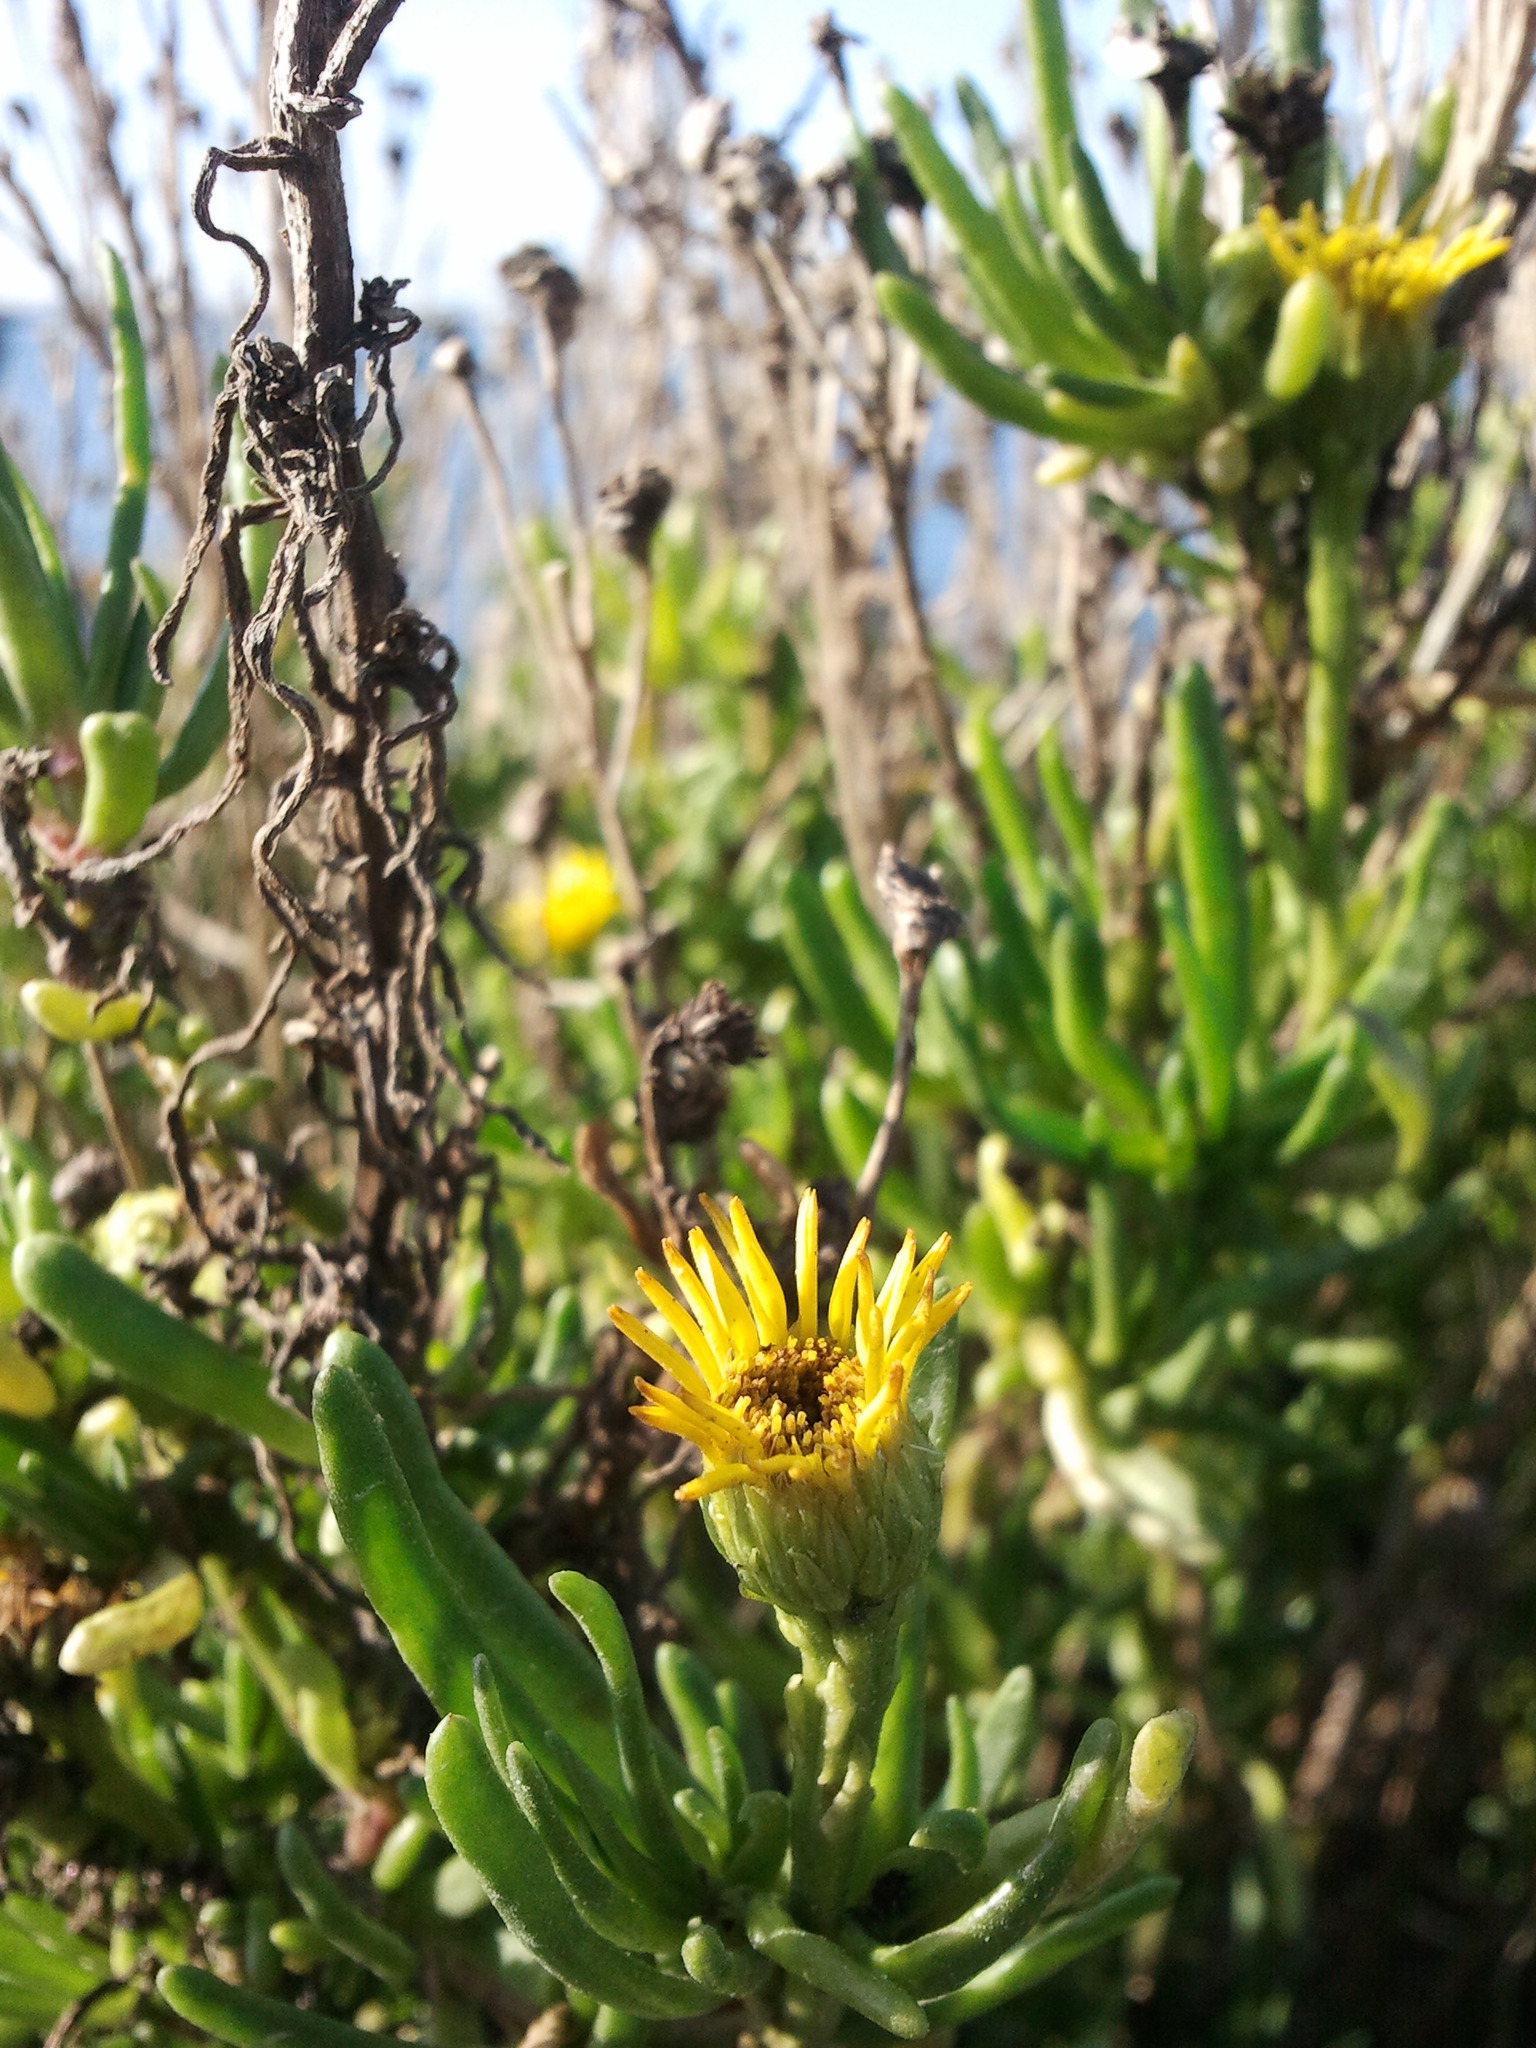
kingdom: Plantae
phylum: Tracheophyta
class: Magnoliopsida
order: Asterales
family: Asteraceae
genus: Limbarda
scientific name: Limbarda crithmoides
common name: Golden samphire
